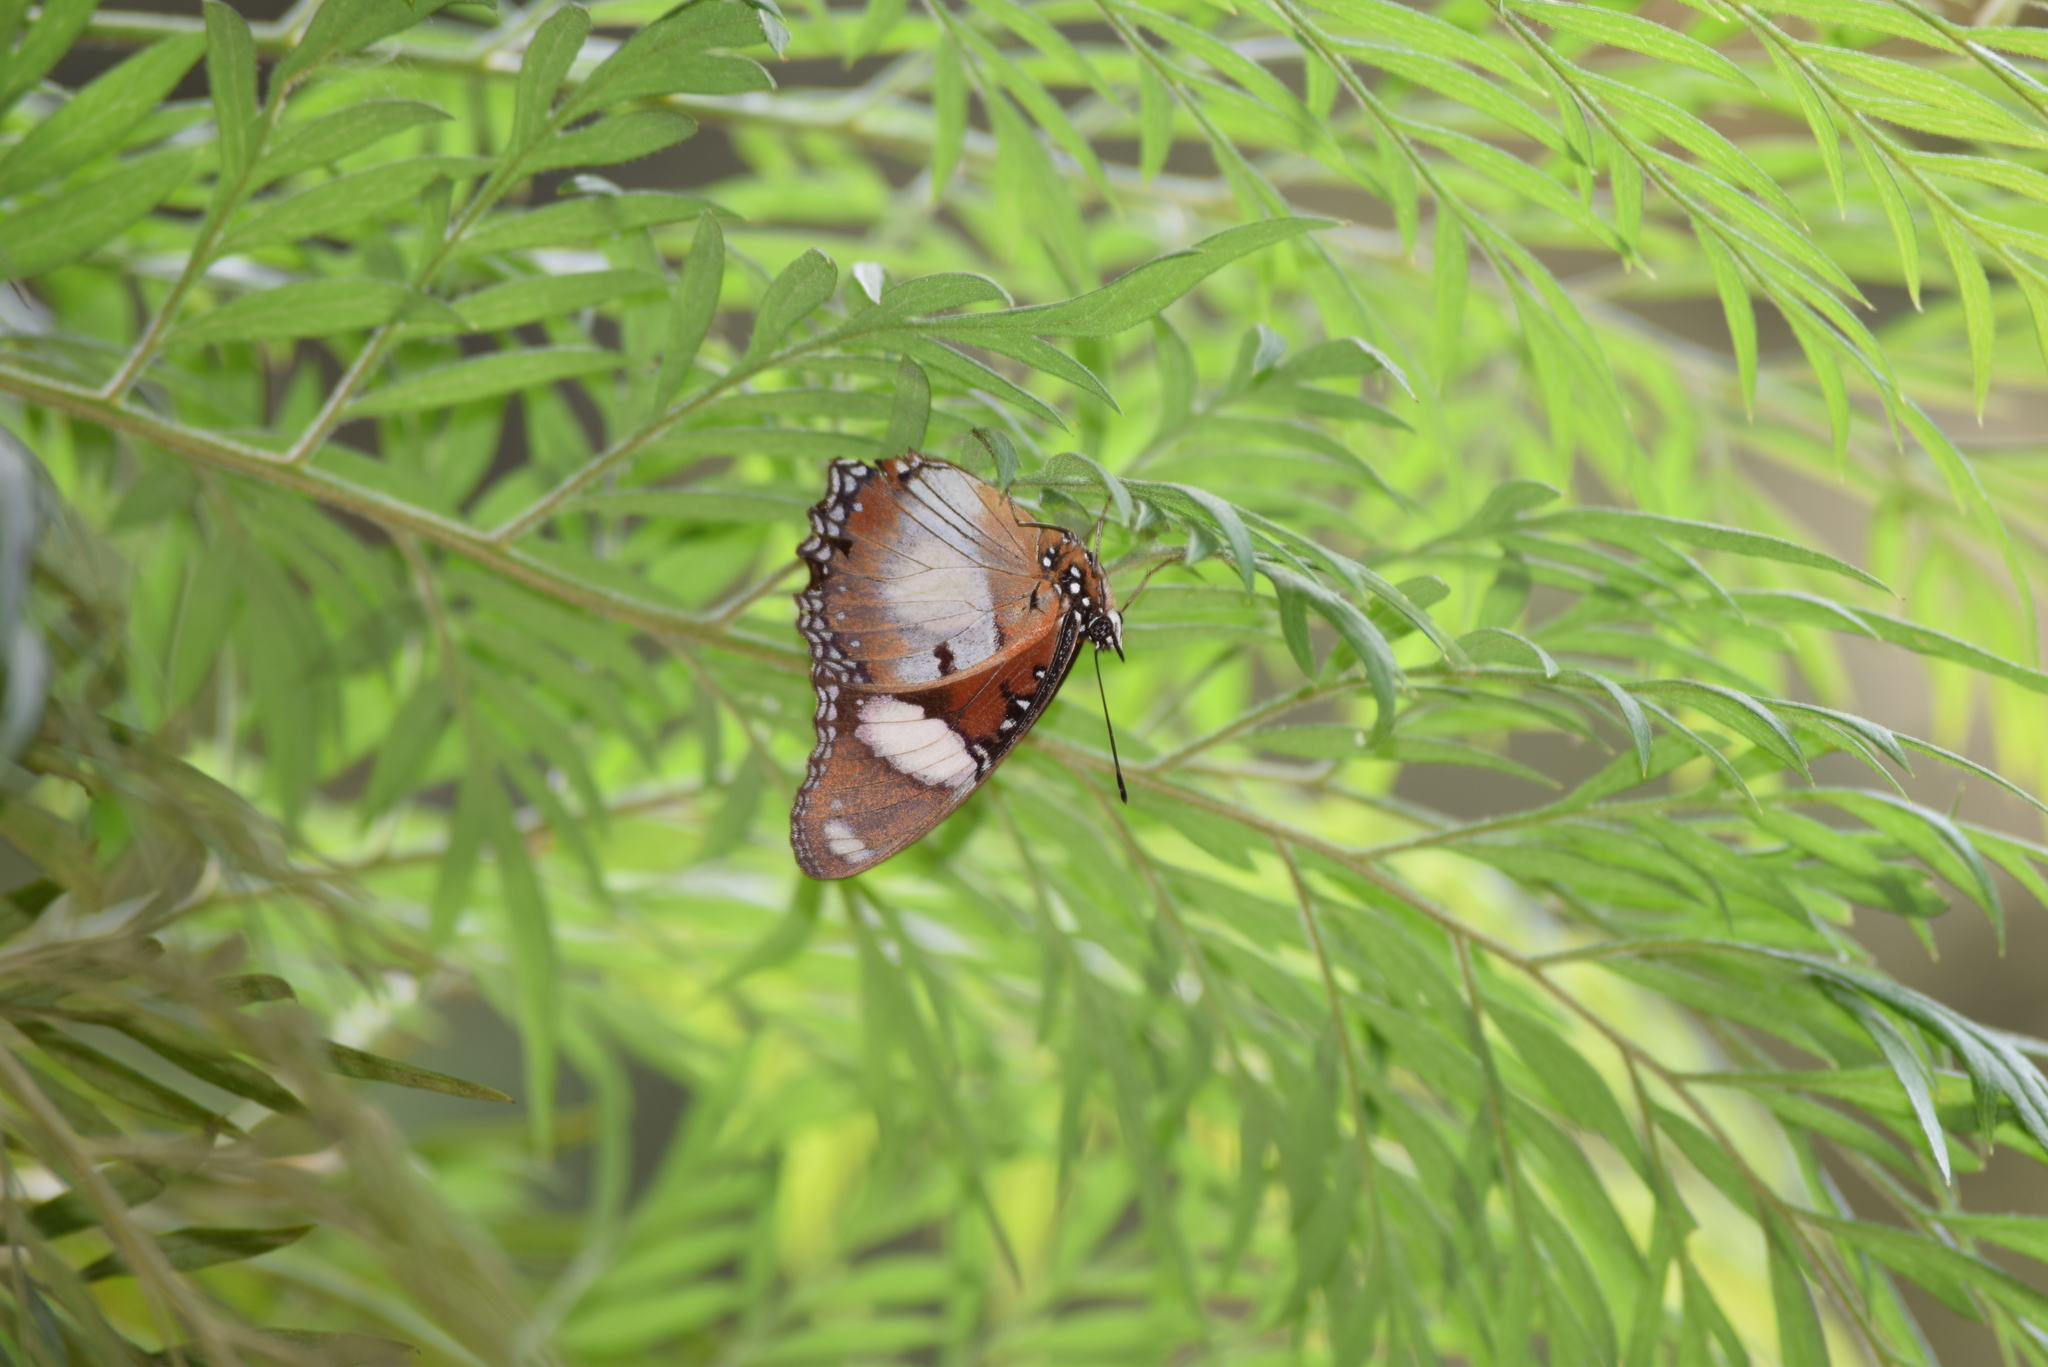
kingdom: Animalia
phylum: Arthropoda
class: Insecta
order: Lepidoptera
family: Nymphalidae
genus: Hypolimnas
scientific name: Hypolimnas misippus
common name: False plain tiger
